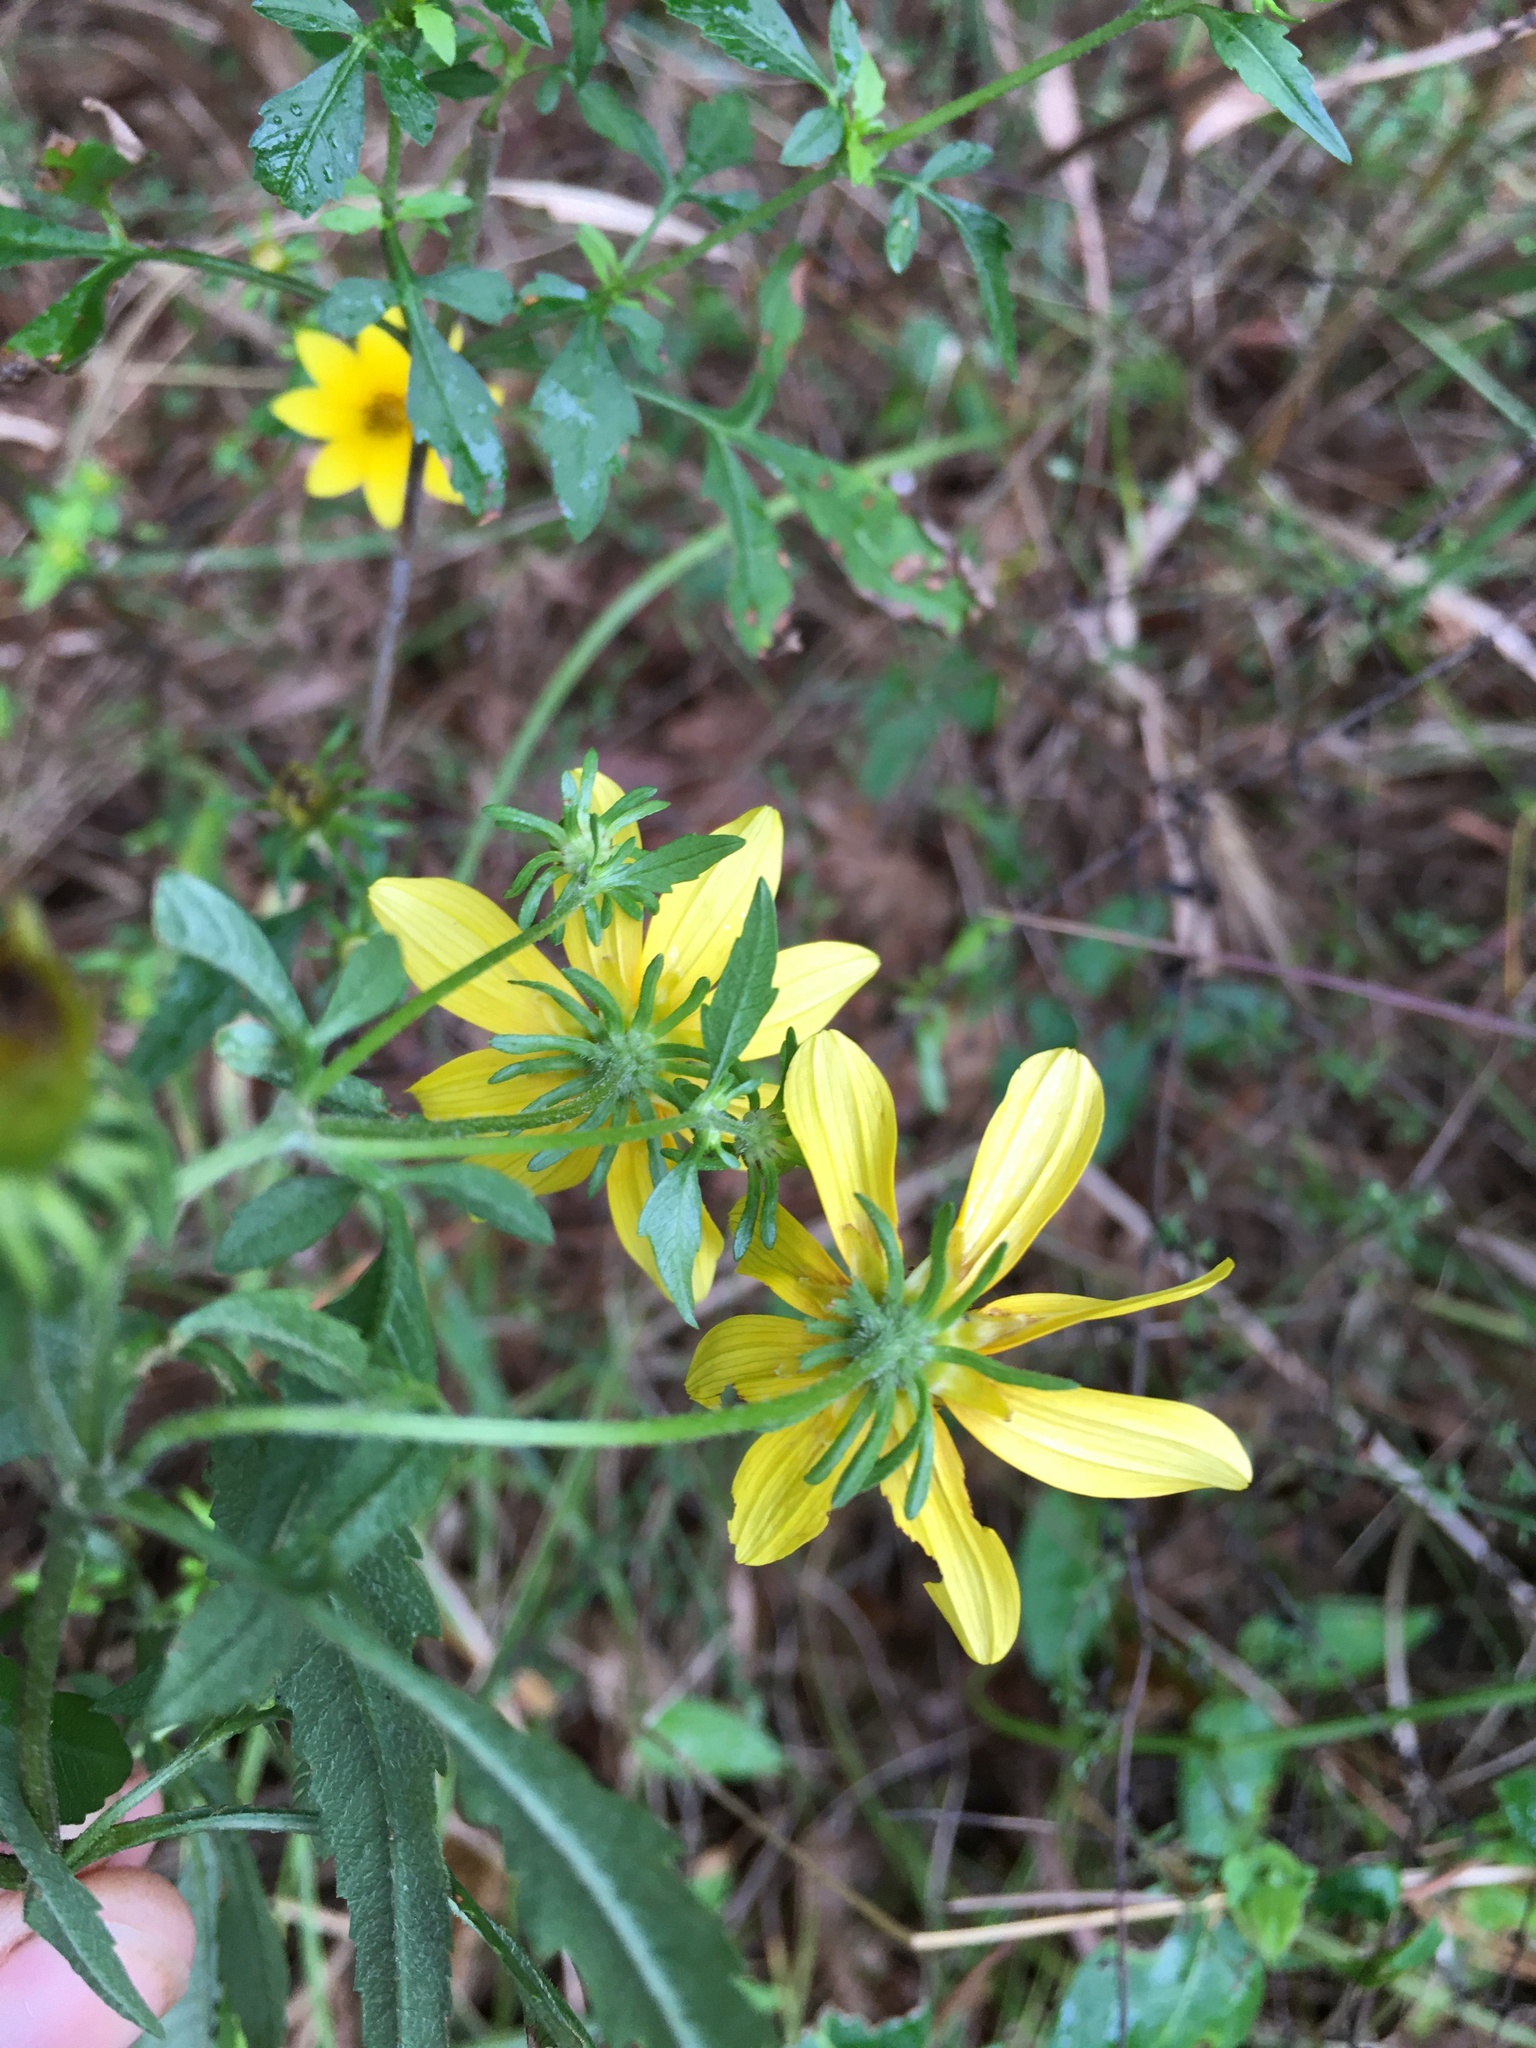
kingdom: Plantae
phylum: Tracheophyta
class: Magnoliopsida
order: Asterales
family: Asteraceae
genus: Bidens
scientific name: Bidens aristosa
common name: Western tickseed
